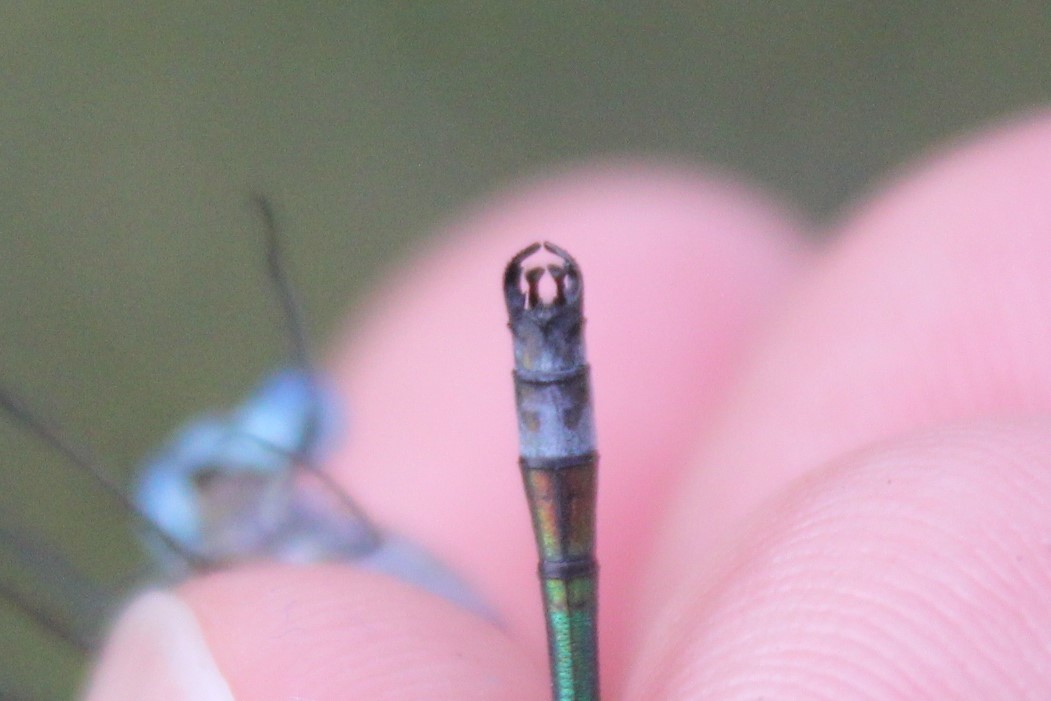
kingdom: Animalia
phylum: Arthropoda
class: Insecta
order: Odonata
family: Lestidae
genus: Lestes
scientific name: Lestes dryas
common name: Scarce emerald damselfly
